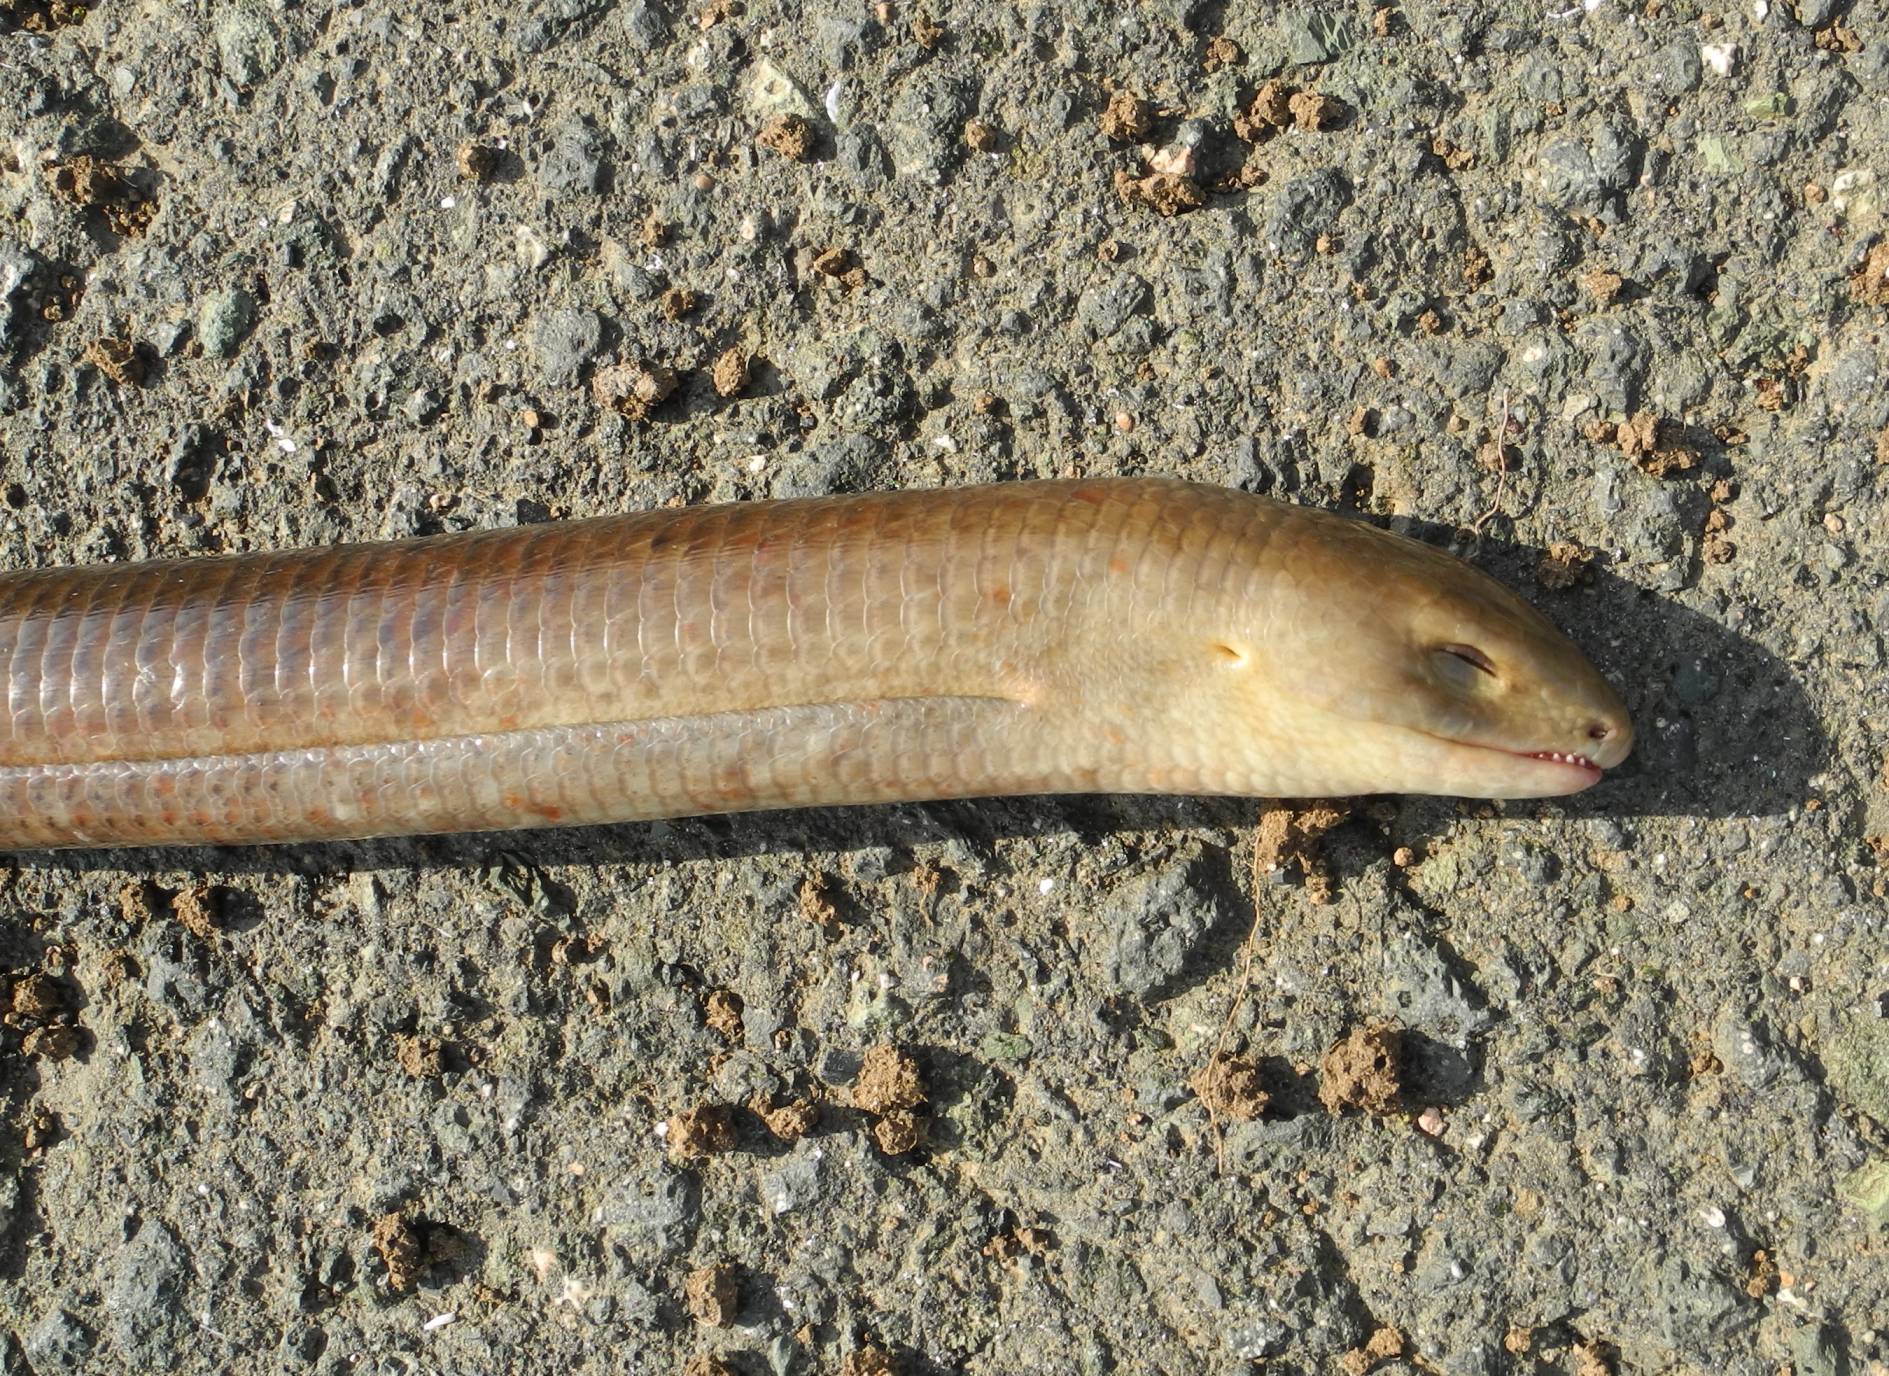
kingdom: Animalia
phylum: Chordata
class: Squamata
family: Anguidae
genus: Pseudopus
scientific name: Pseudopus apodus
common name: European glass lizard
